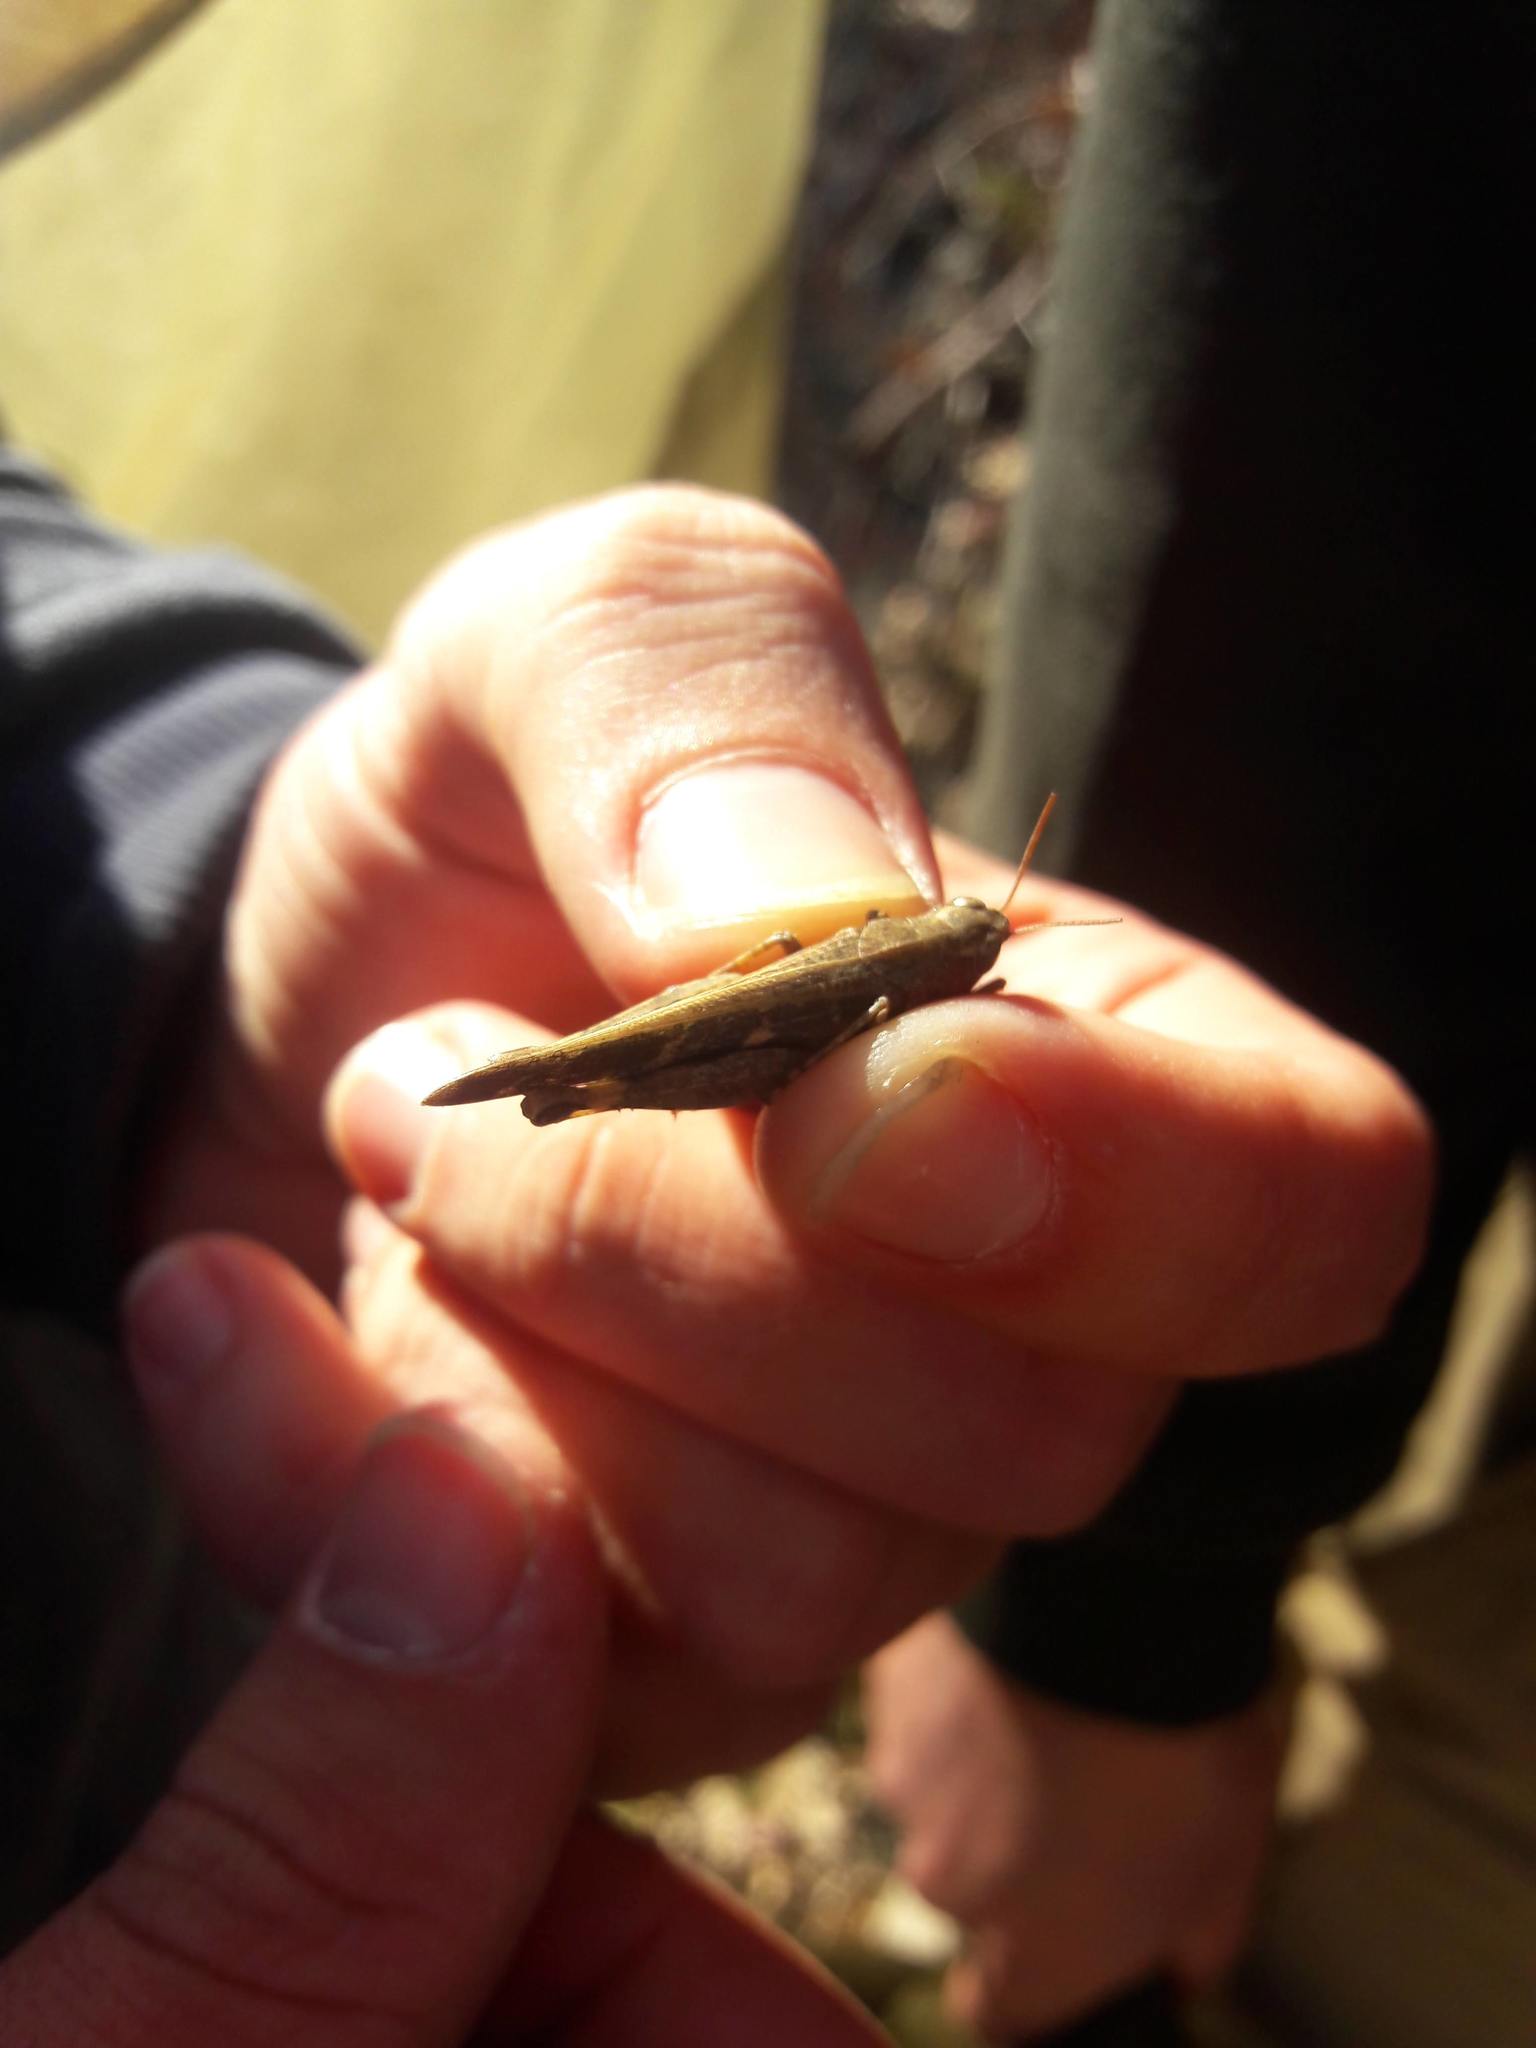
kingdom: Animalia
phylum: Arthropoda
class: Insecta
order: Orthoptera
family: Acrididae
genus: Aiolopus
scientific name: Aiolopus strepens
